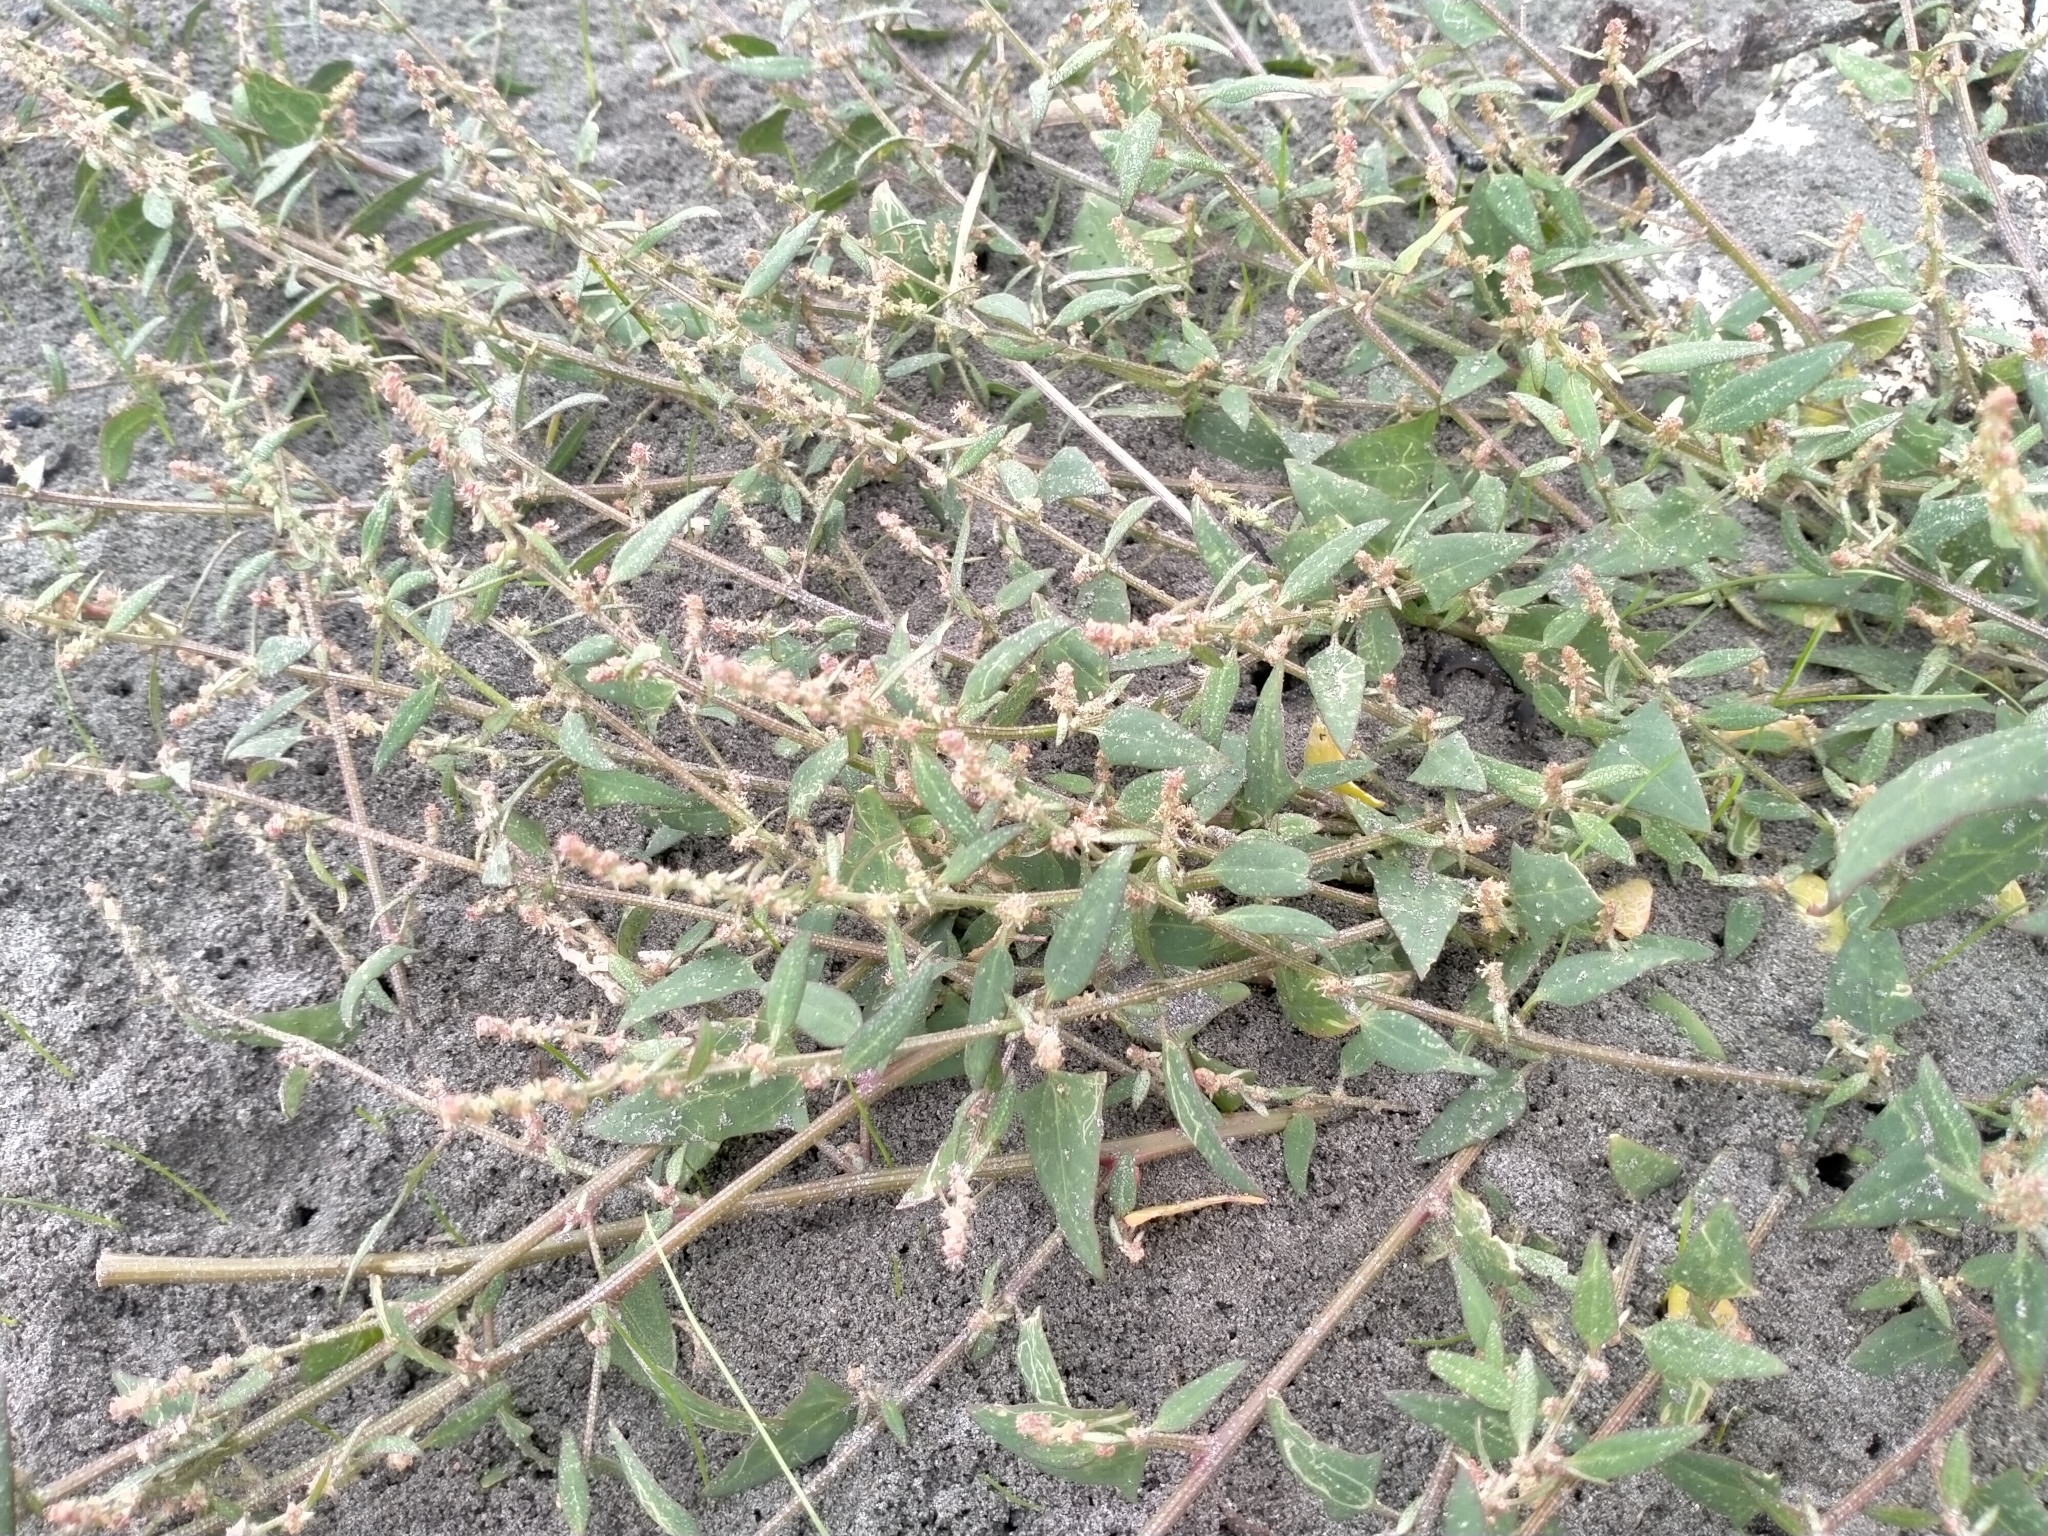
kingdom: Plantae
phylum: Tracheophyta
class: Magnoliopsida
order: Caryophyllales
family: Amaranthaceae
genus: Atriplex
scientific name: Atriplex prostrata
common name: Spear-leaved orache
